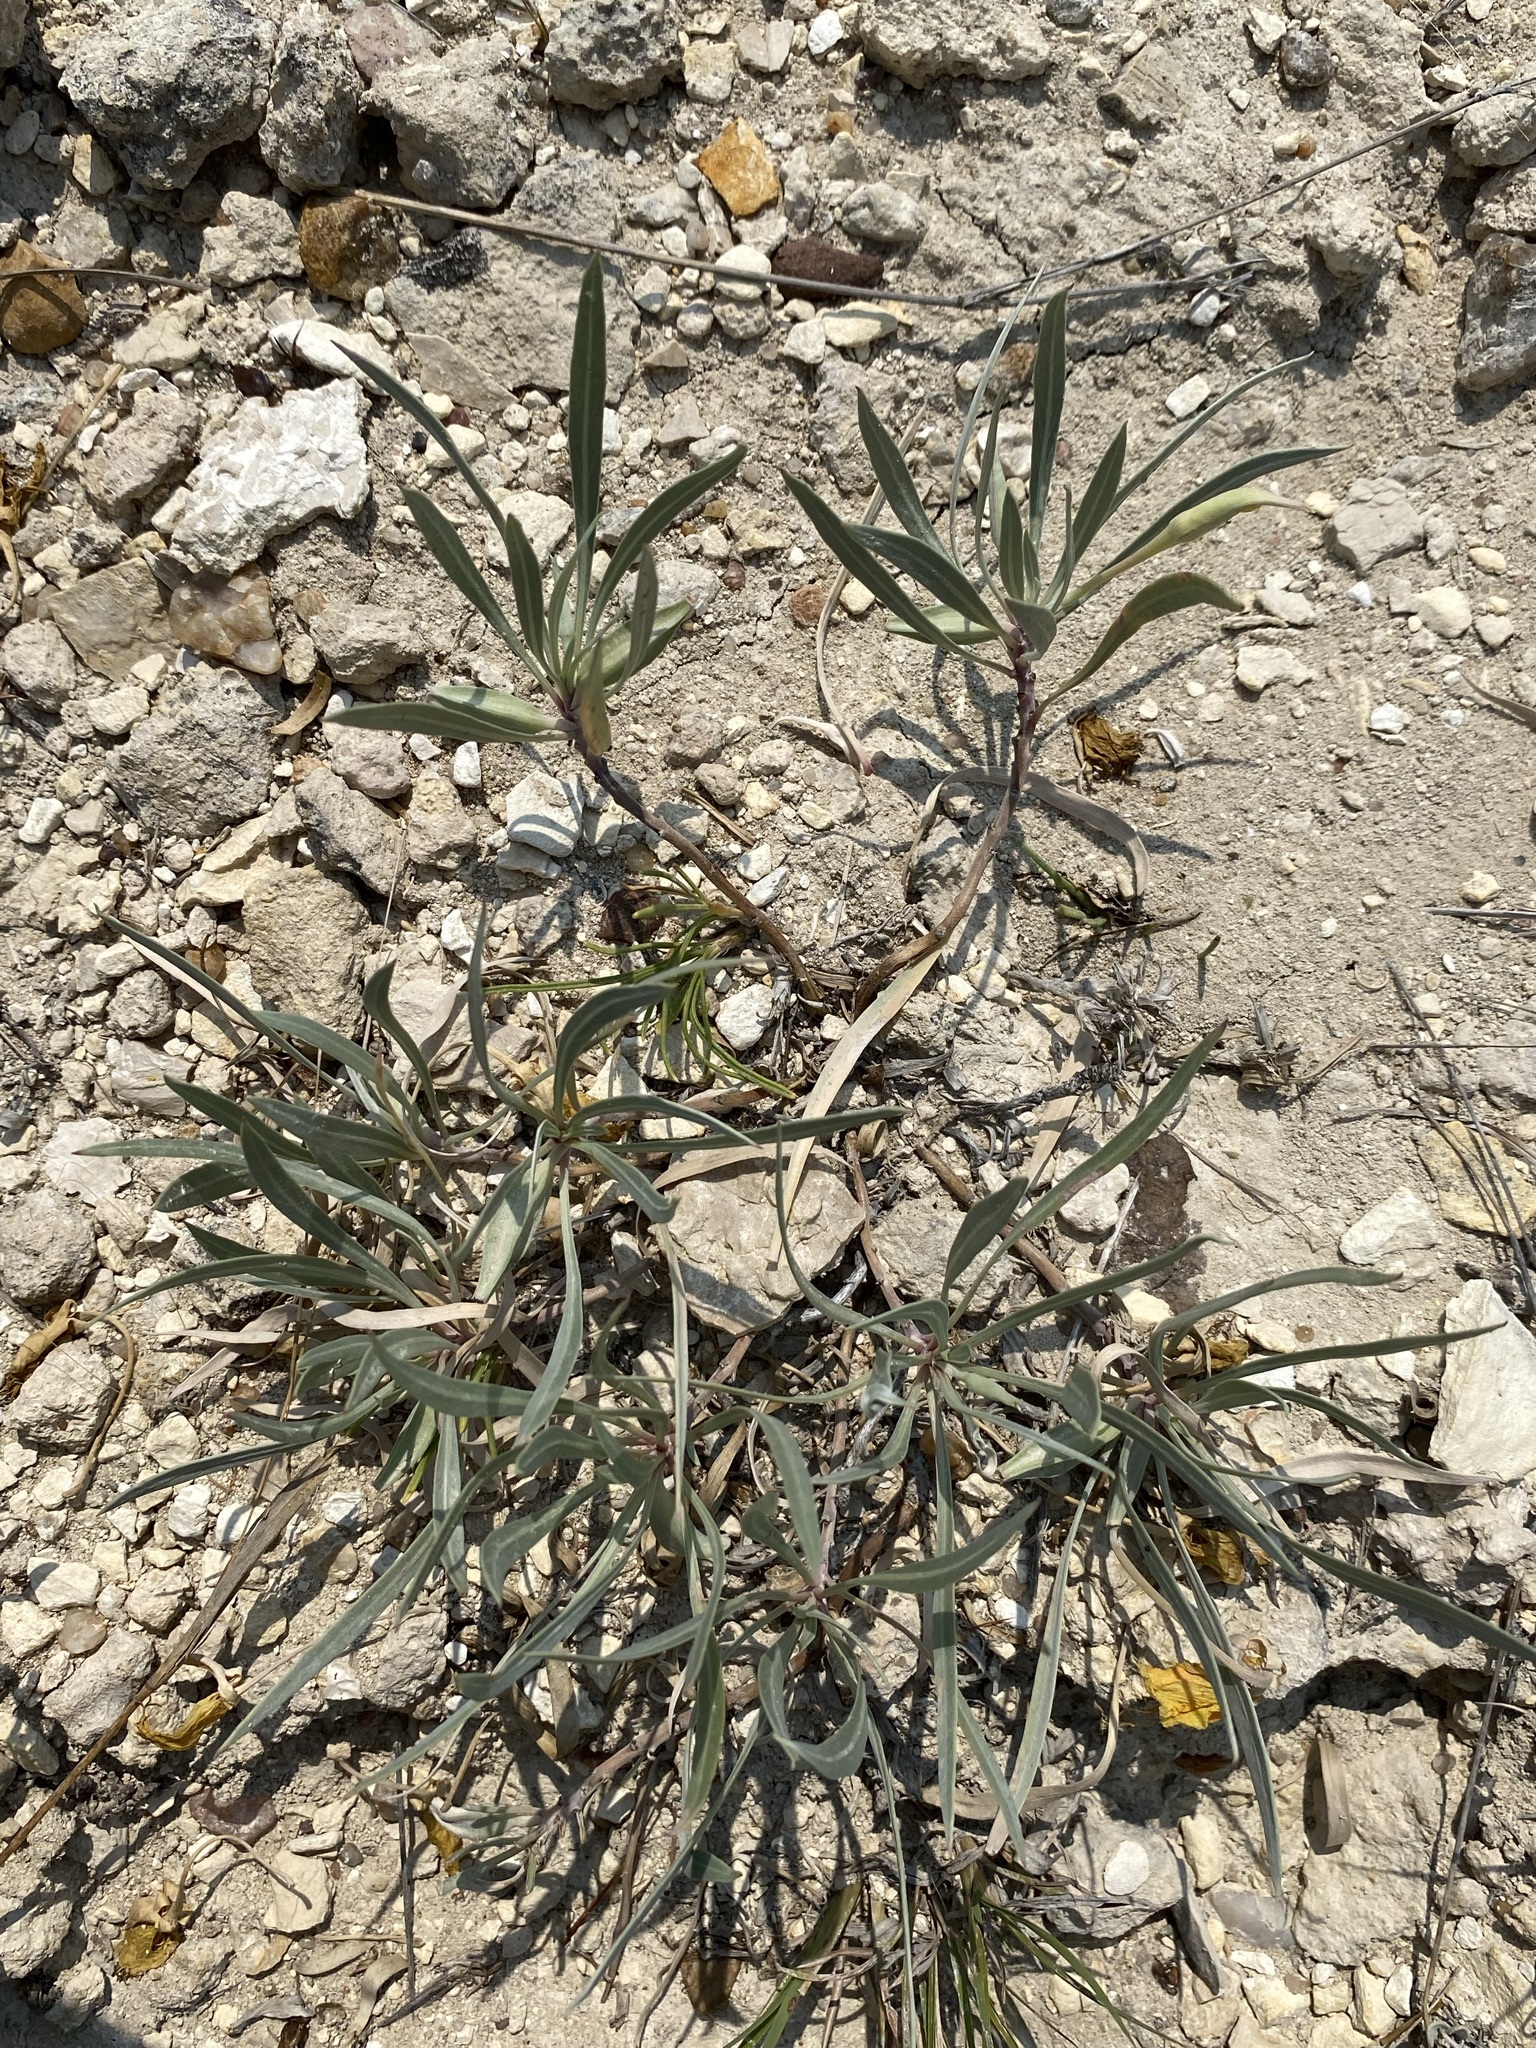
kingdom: Plantae
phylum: Tracheophyta
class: Magnoliopsida
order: Myrtales
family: Onagraceae
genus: Oenothera
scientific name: Oenothera macrocarpa
